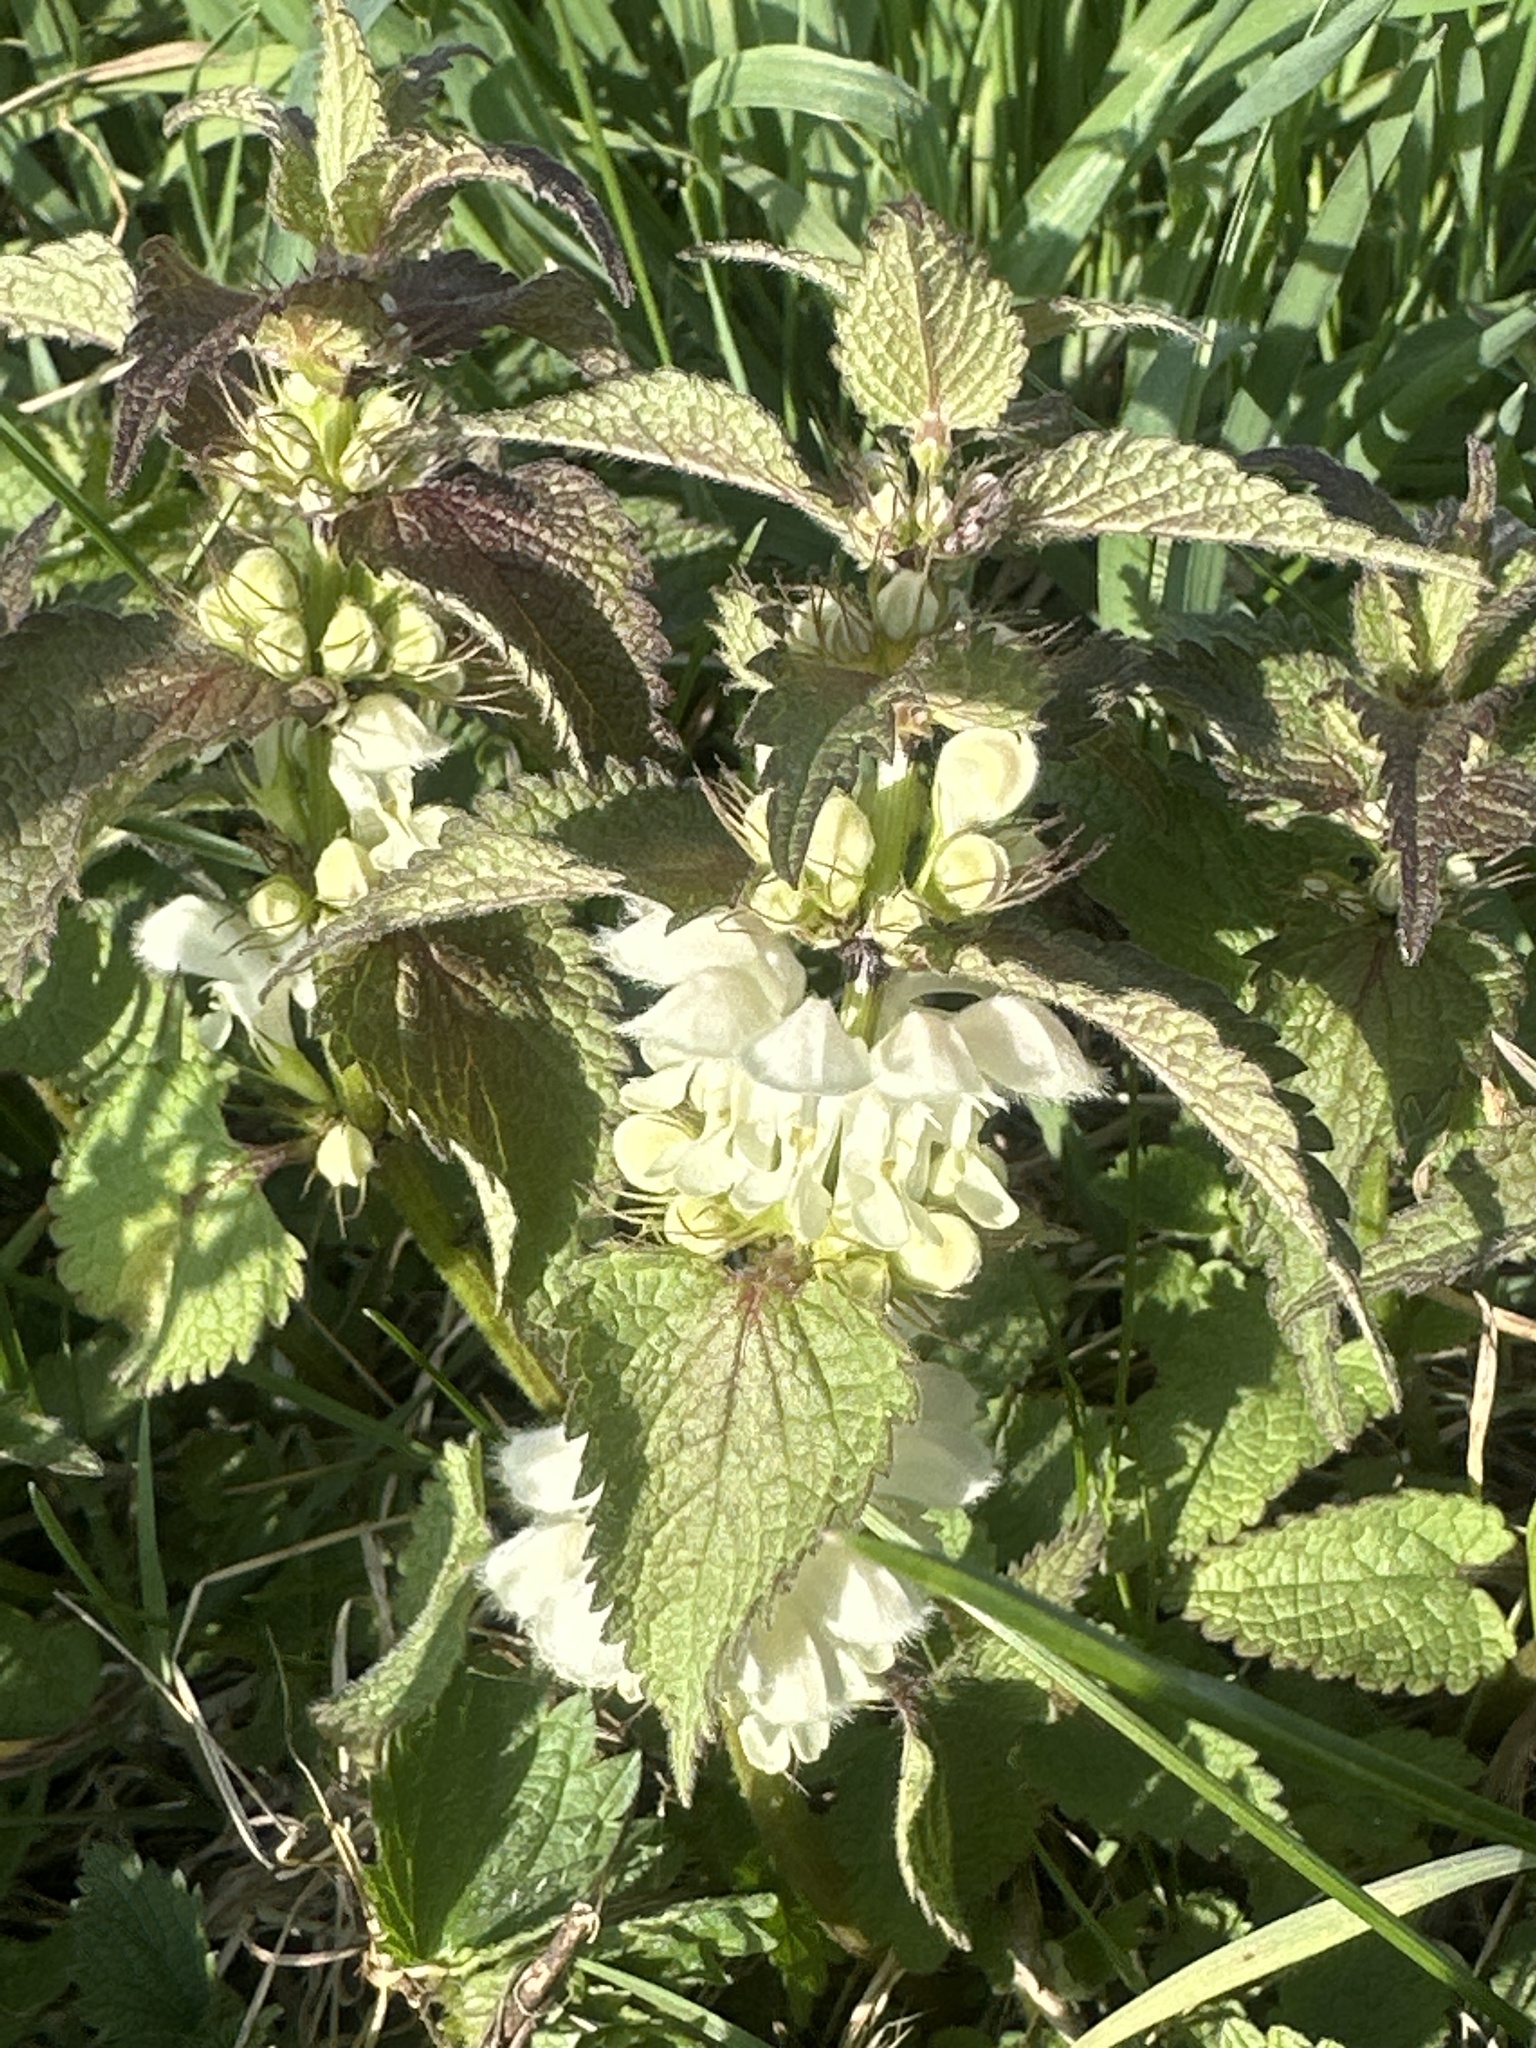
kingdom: Plantae
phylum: Tracheophyta
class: Magnoliopsida
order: Lamiales
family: Lamiaceae
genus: Lamium
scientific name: Lamium album
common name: White dead-nettle
